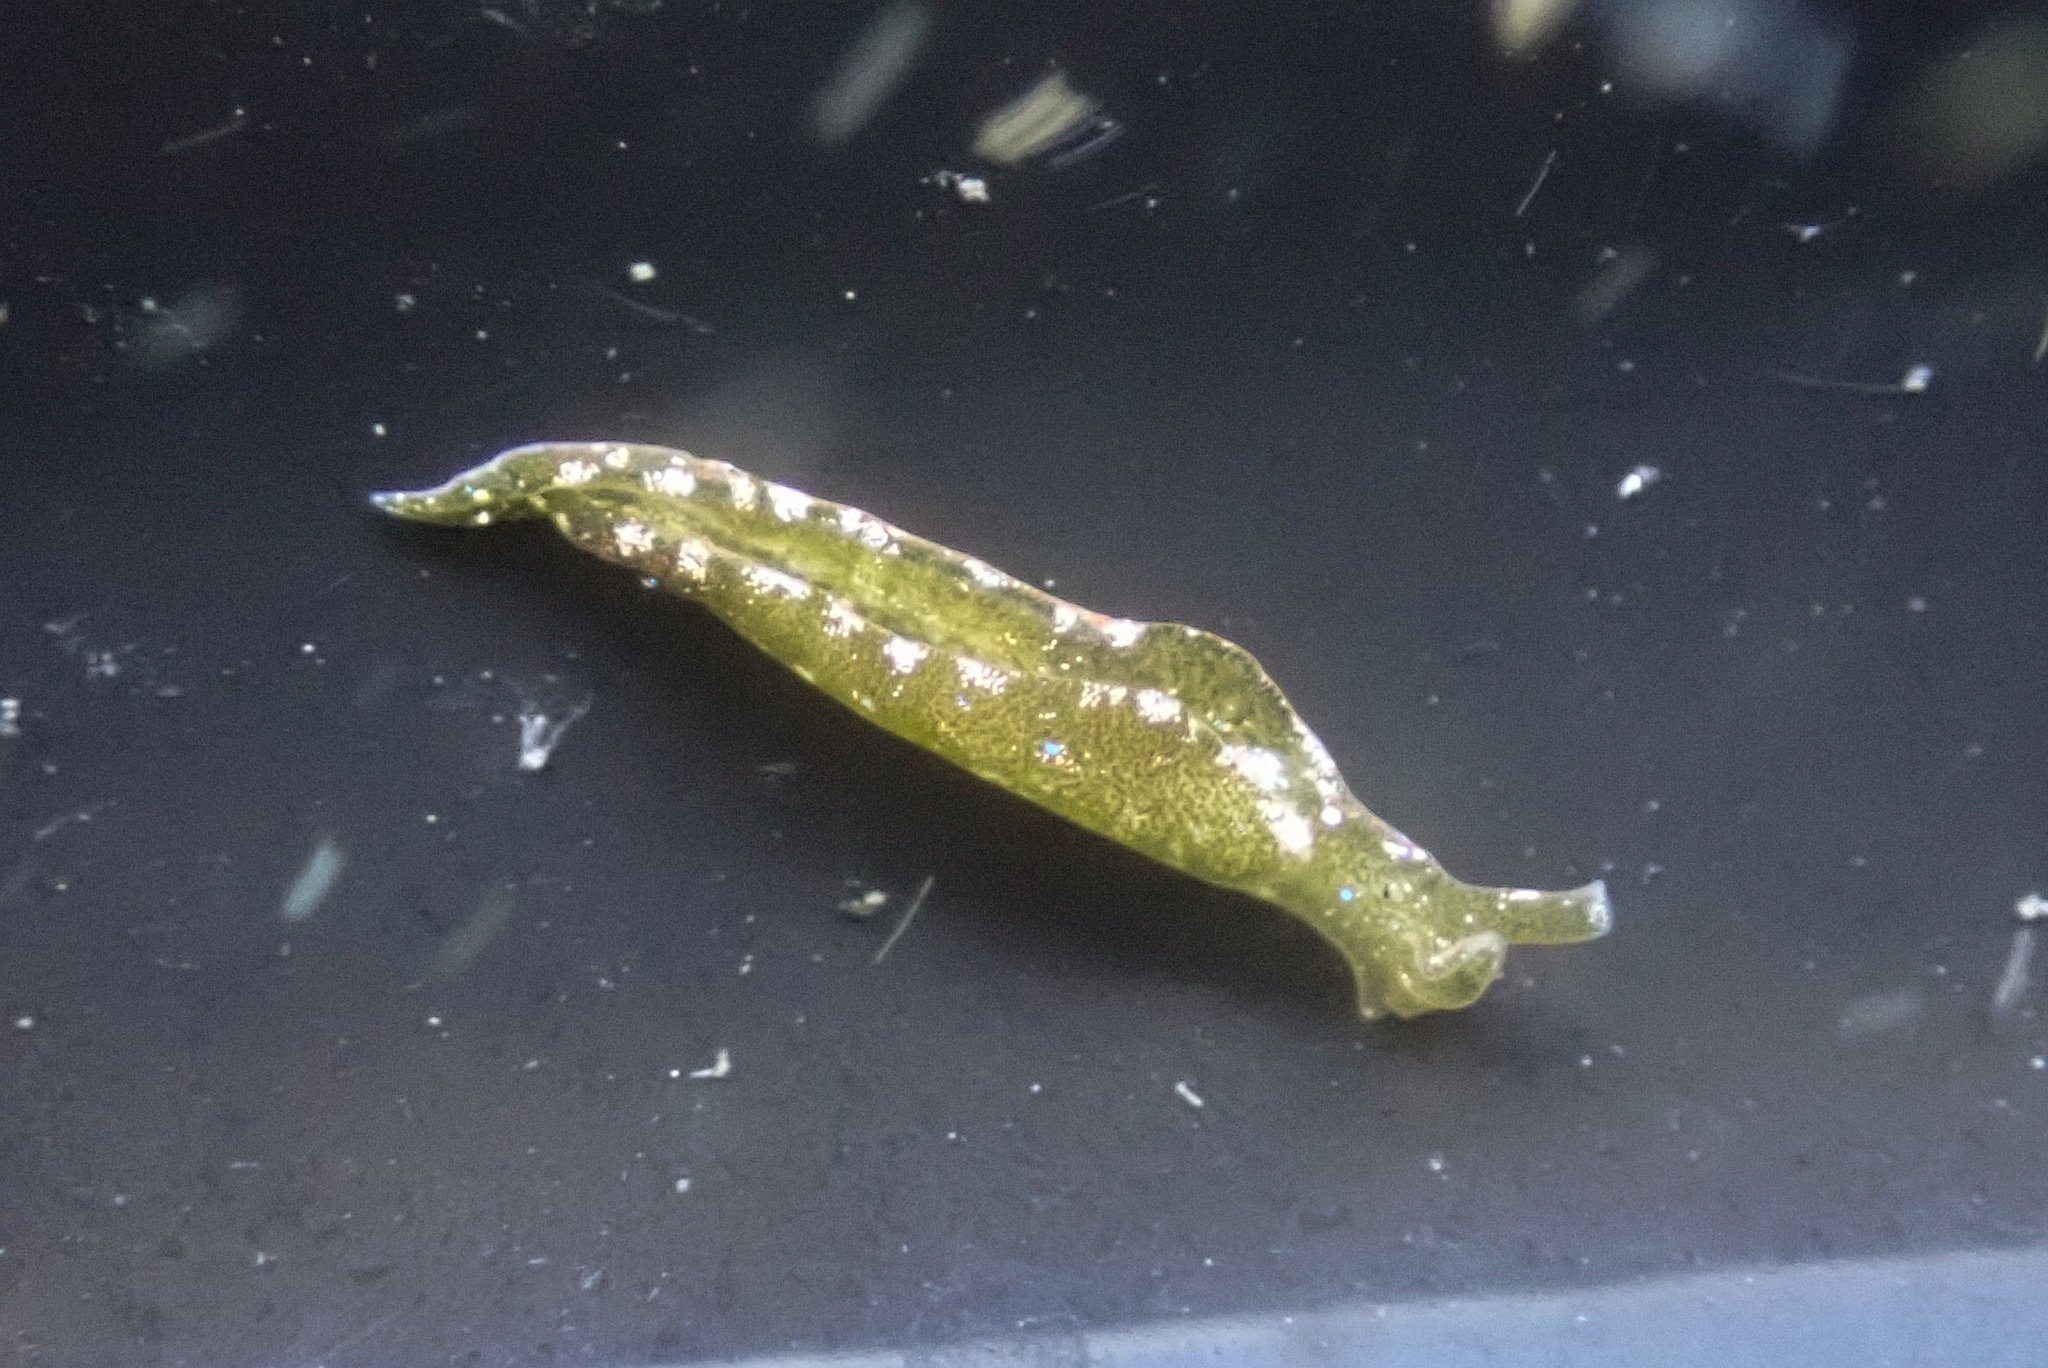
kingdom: Animalia
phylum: Mollusca
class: Gastropoda
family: Plakobranchidae
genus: Elysia
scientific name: Elysia hedgpethi
